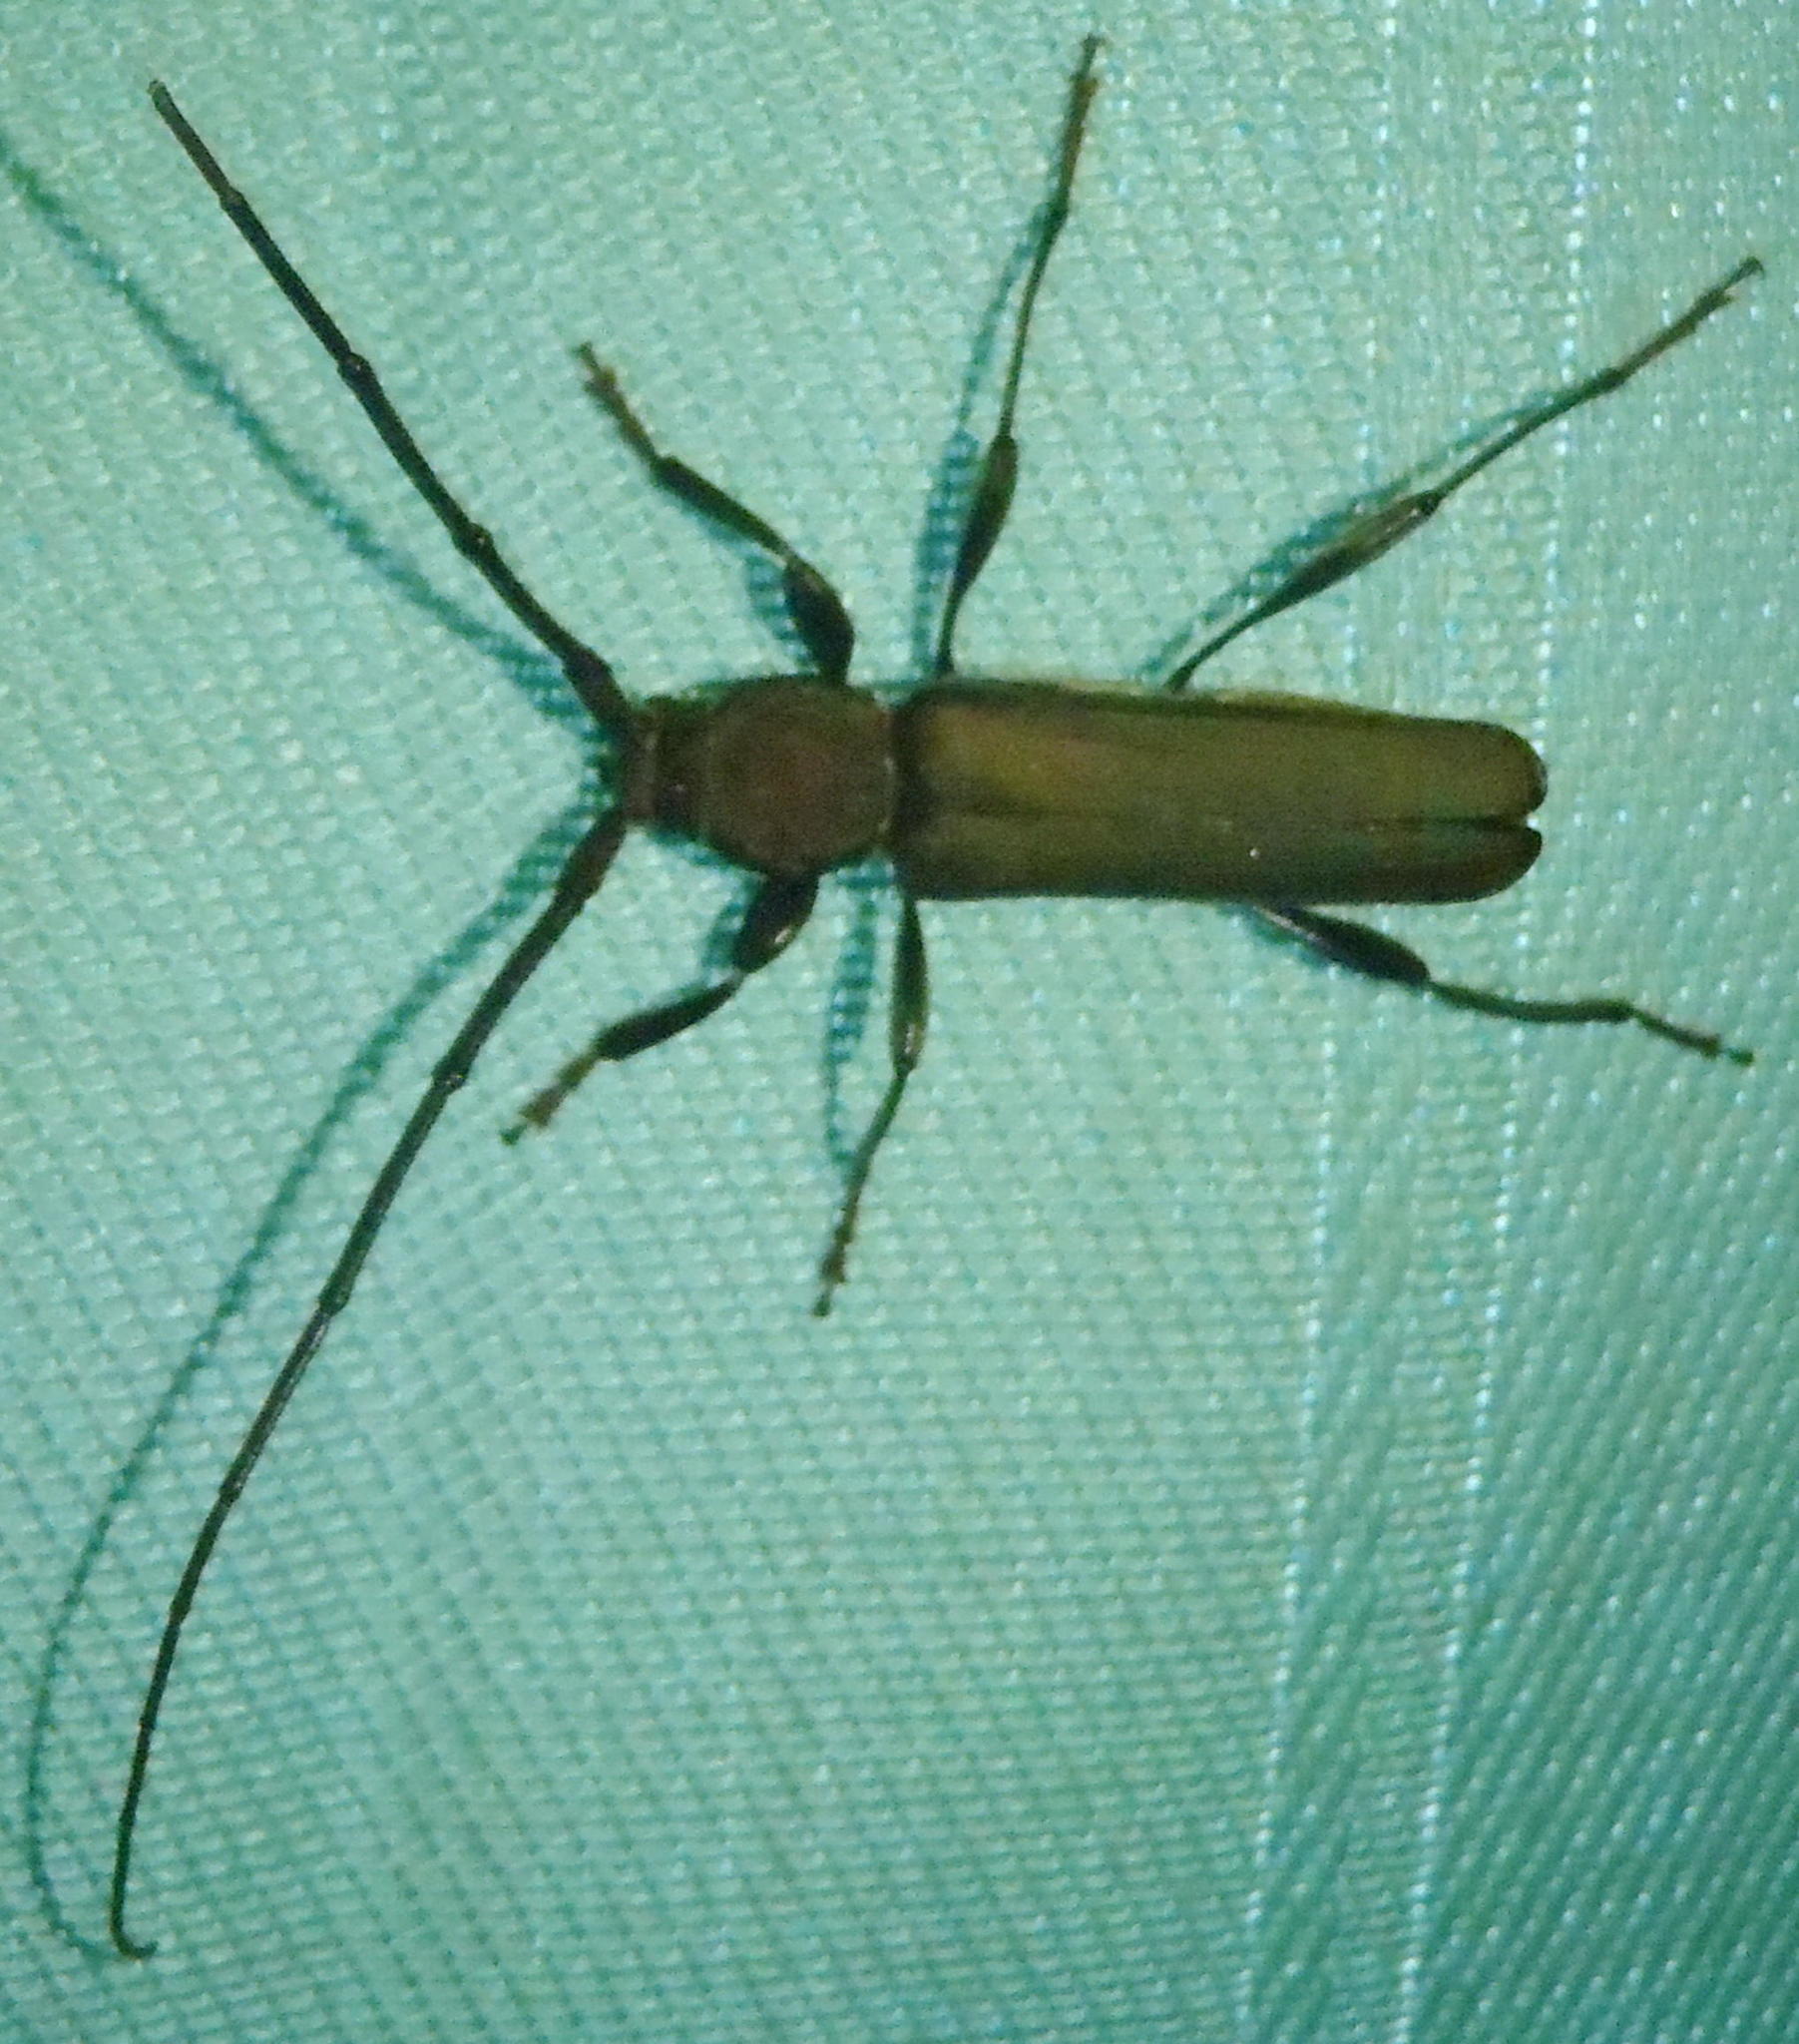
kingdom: Animalia
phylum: Arthropoda
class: Insecta
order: Coleoptera
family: Cerambycidae
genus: Xystrocera
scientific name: Xystrocera erosa
